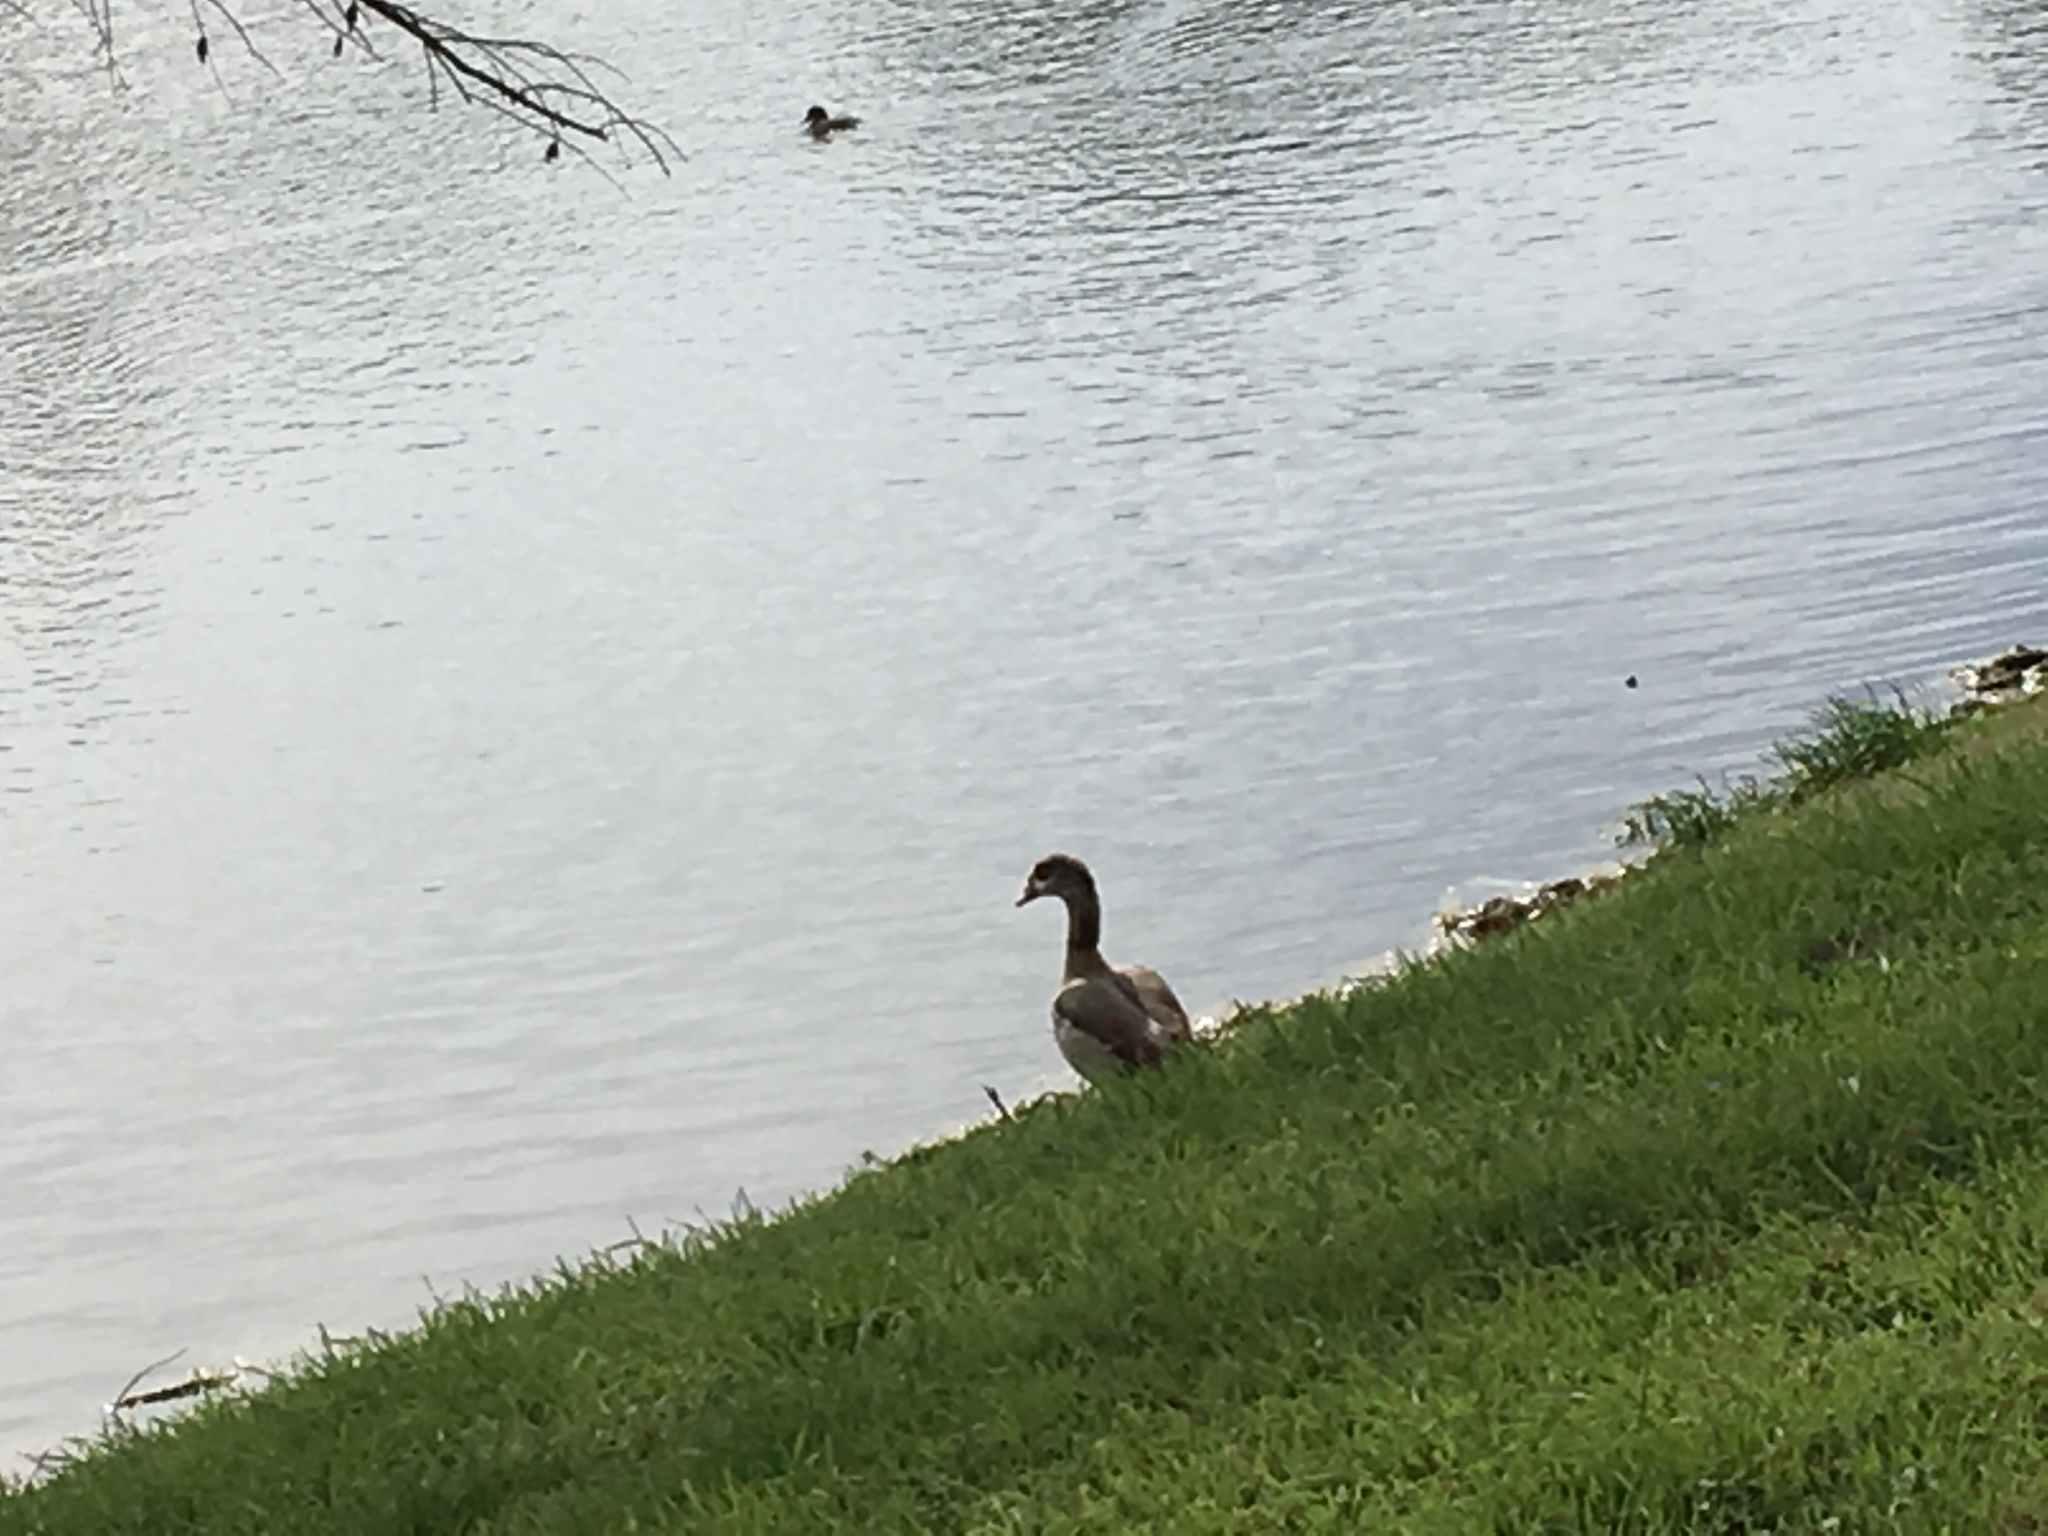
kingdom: Animalia
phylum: Chordata
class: Aves
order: Anseriformes
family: Anatidae
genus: Alopochen
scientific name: Alopochen aegyptiaca
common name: Egyptian goose
